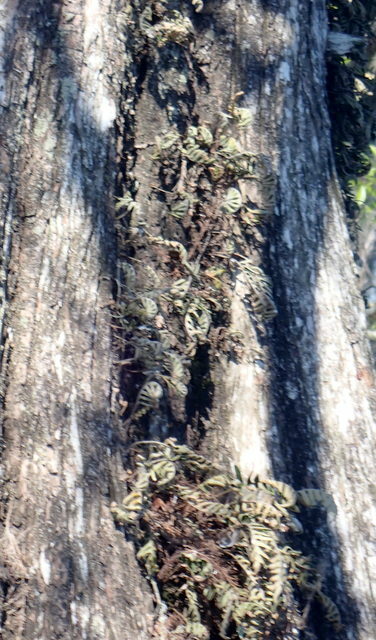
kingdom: Plantae
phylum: Tracheophyta
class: Polypodiopsida
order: Polypodiales
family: Polypodiaceae
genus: Pleopeltis
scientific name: Pleopeltis michauxiana
